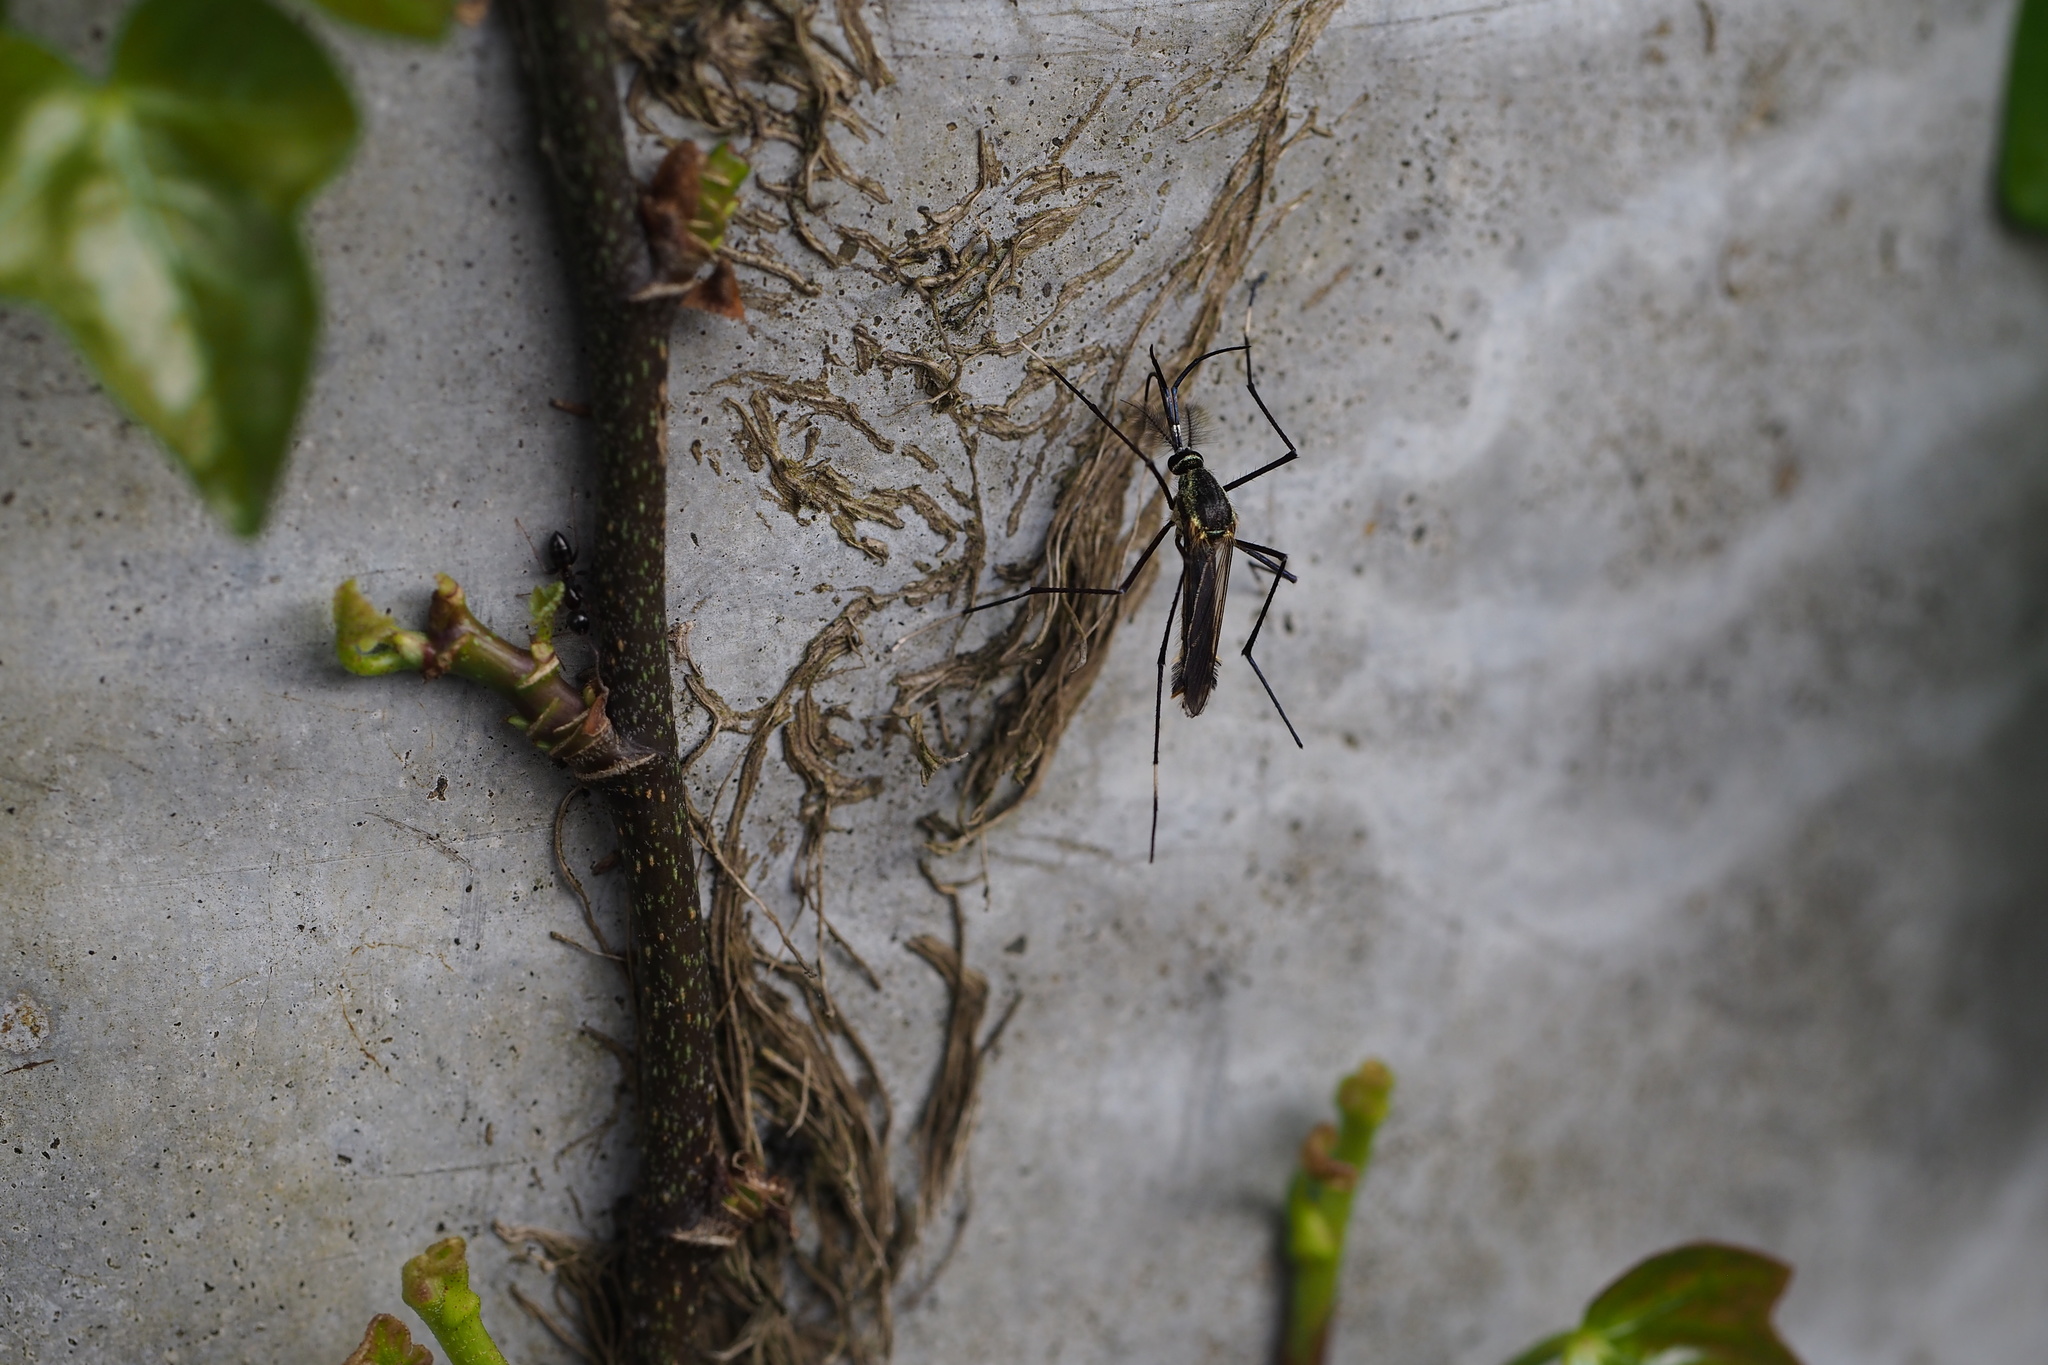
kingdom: Animalia
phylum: Arthropoda
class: Insecta
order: Diptera
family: Culicidae
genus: Toxorhynchites
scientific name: Toxorhynchites towadensis
